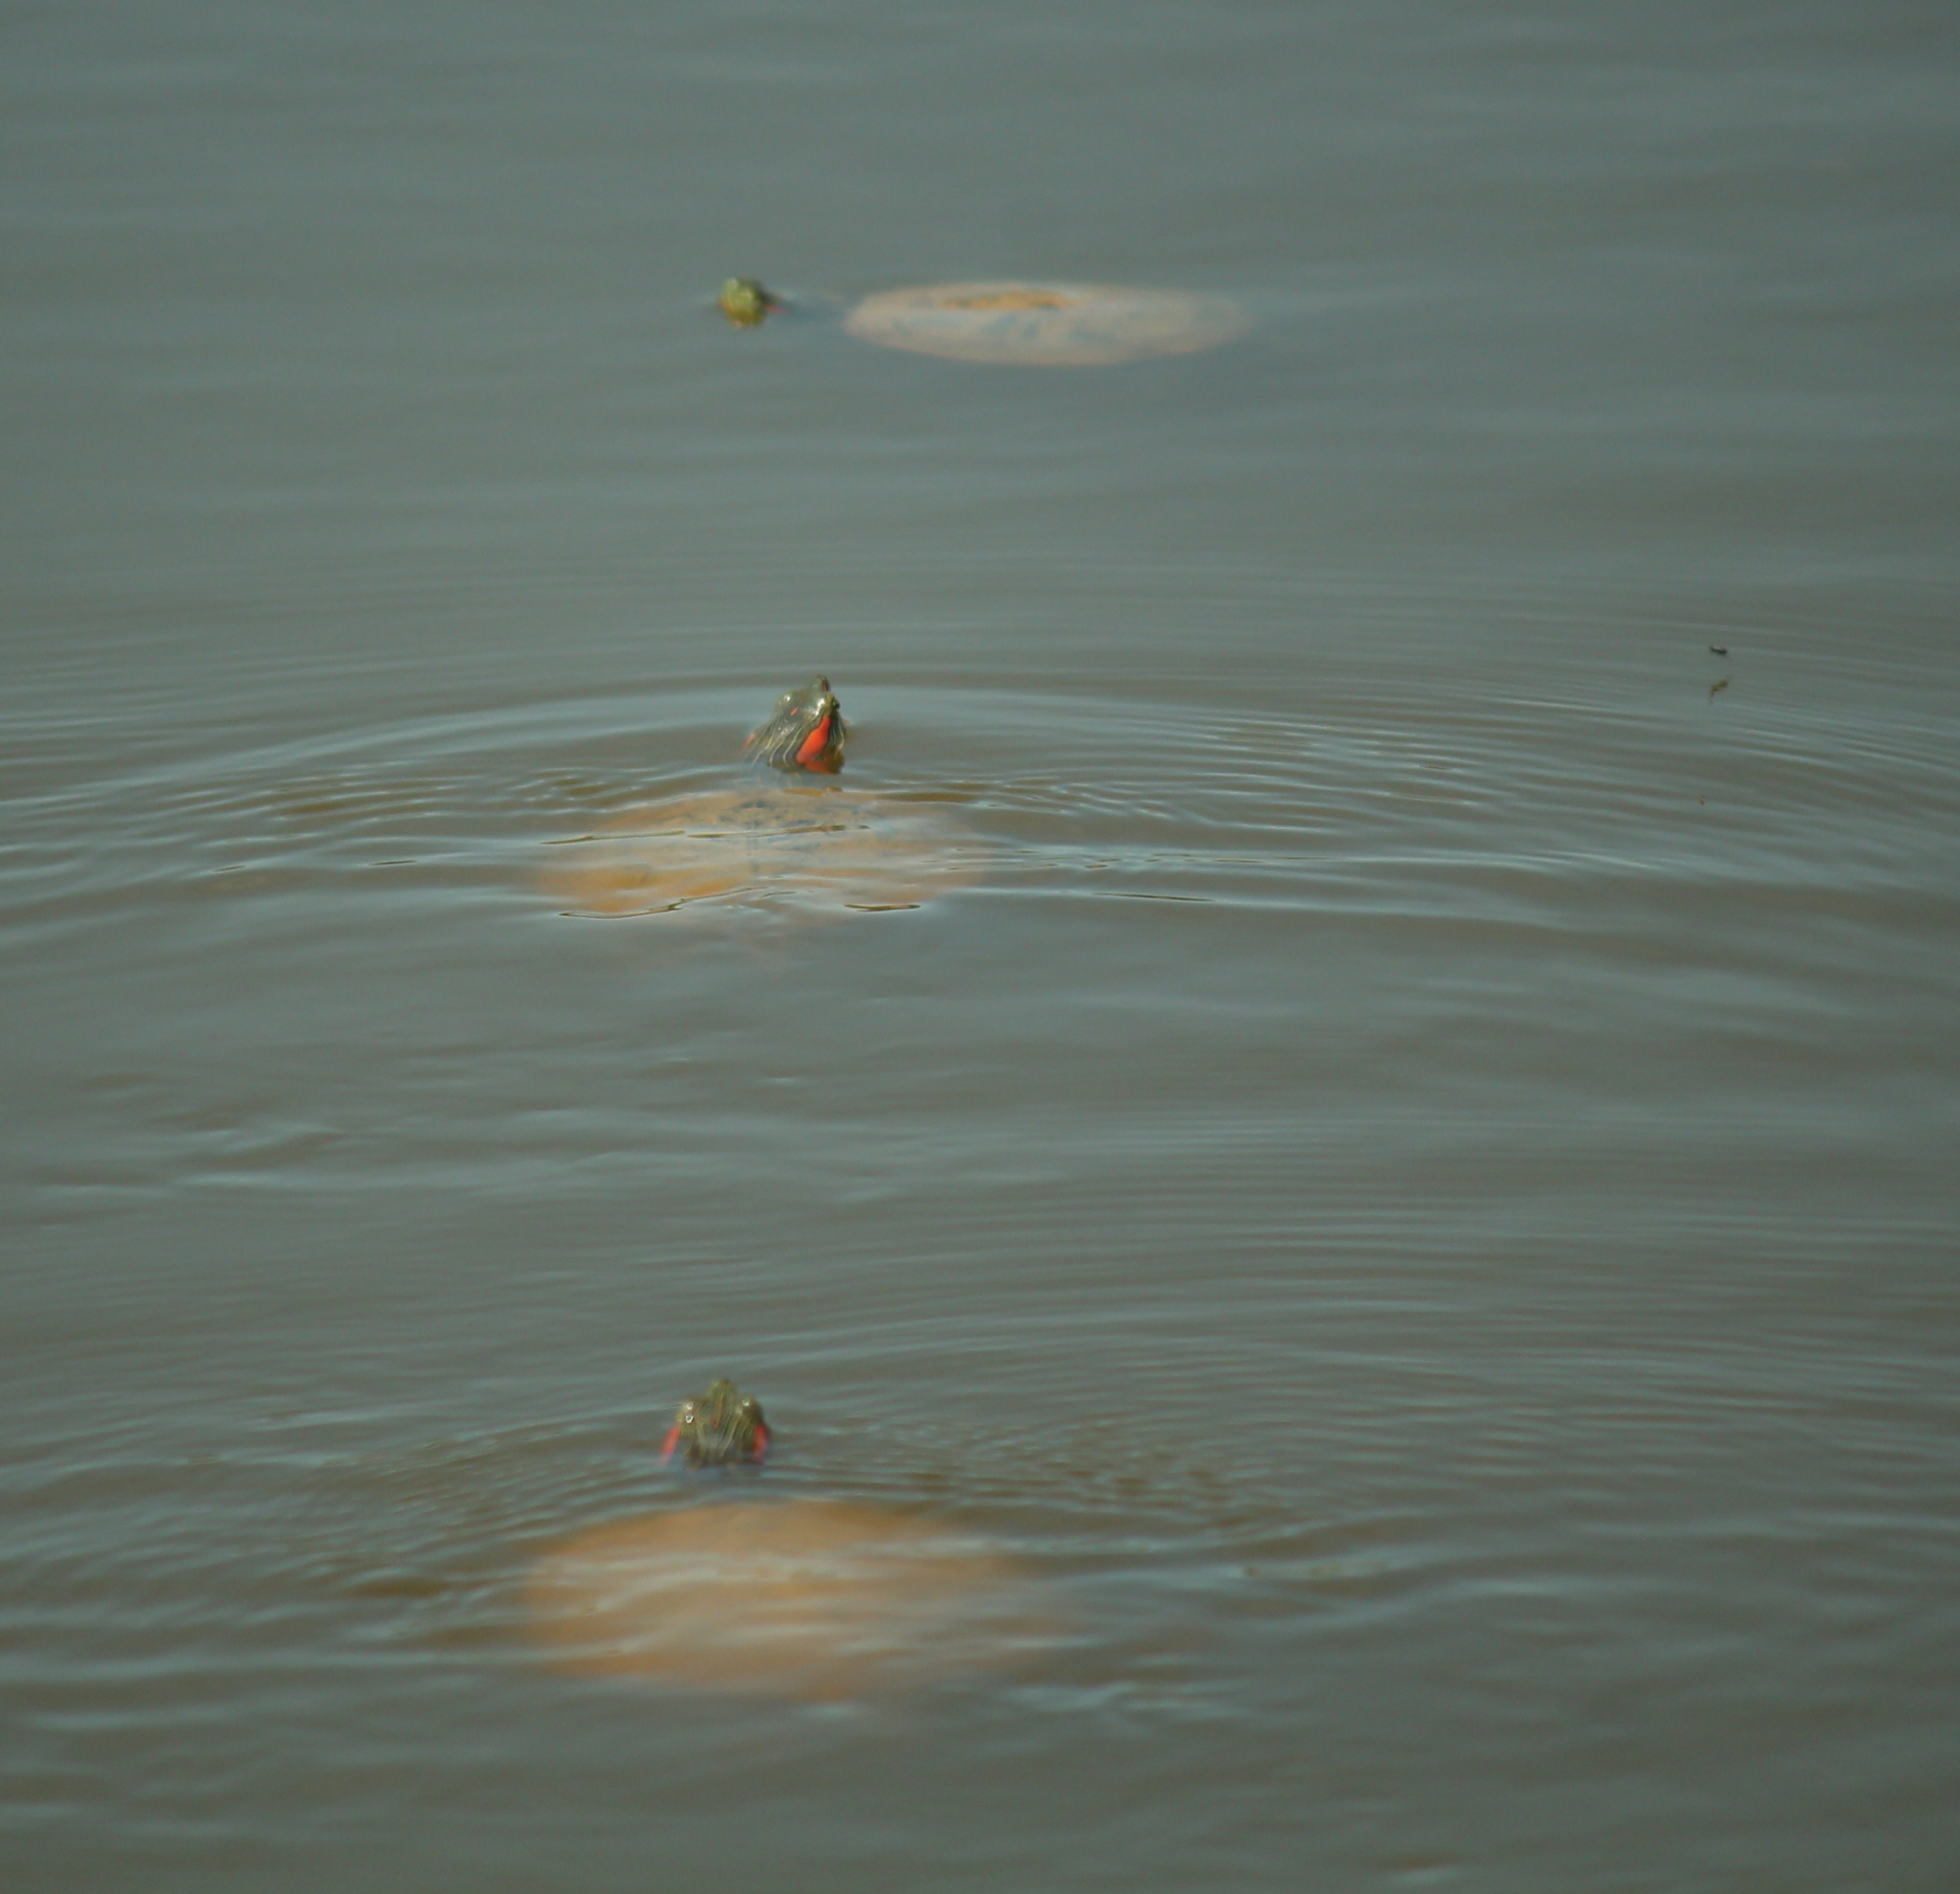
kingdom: Animalia
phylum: Chordata
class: Testudines
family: Emydidae
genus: Trachemys
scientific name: Trachemys scripta
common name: Slider
